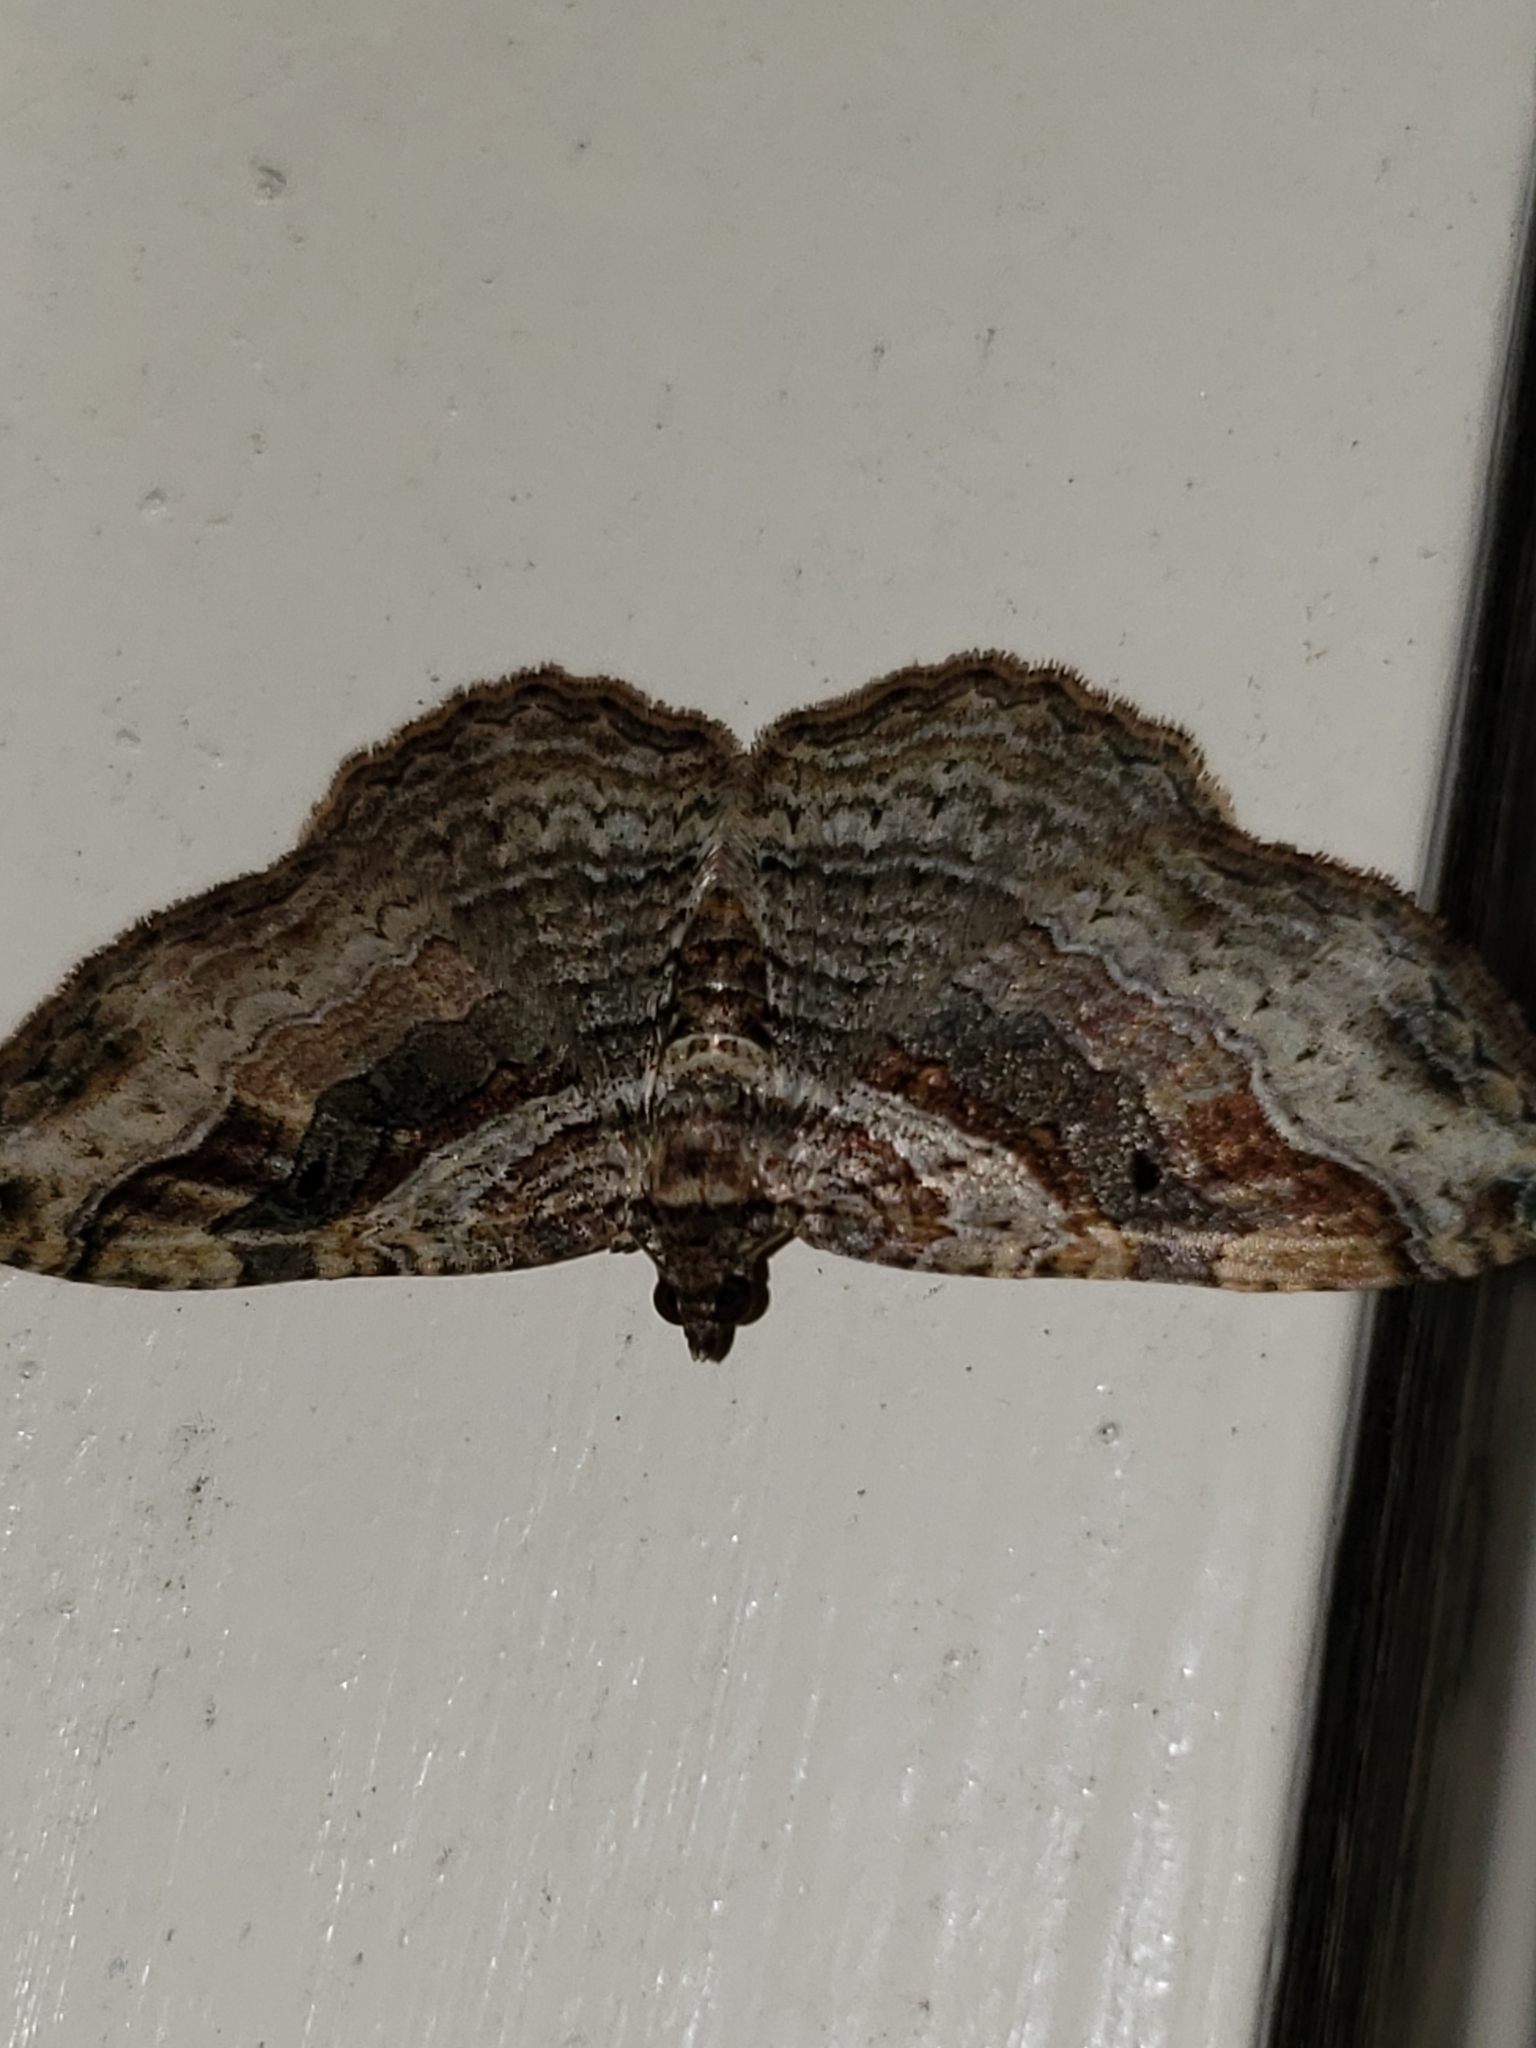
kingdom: Animalia
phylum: Arthropoda
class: Insecta
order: Lepidoptera
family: Geometridae
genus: Costaconvexa
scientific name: Costaconvexa centrostrigaria
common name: Bent-line carpet
